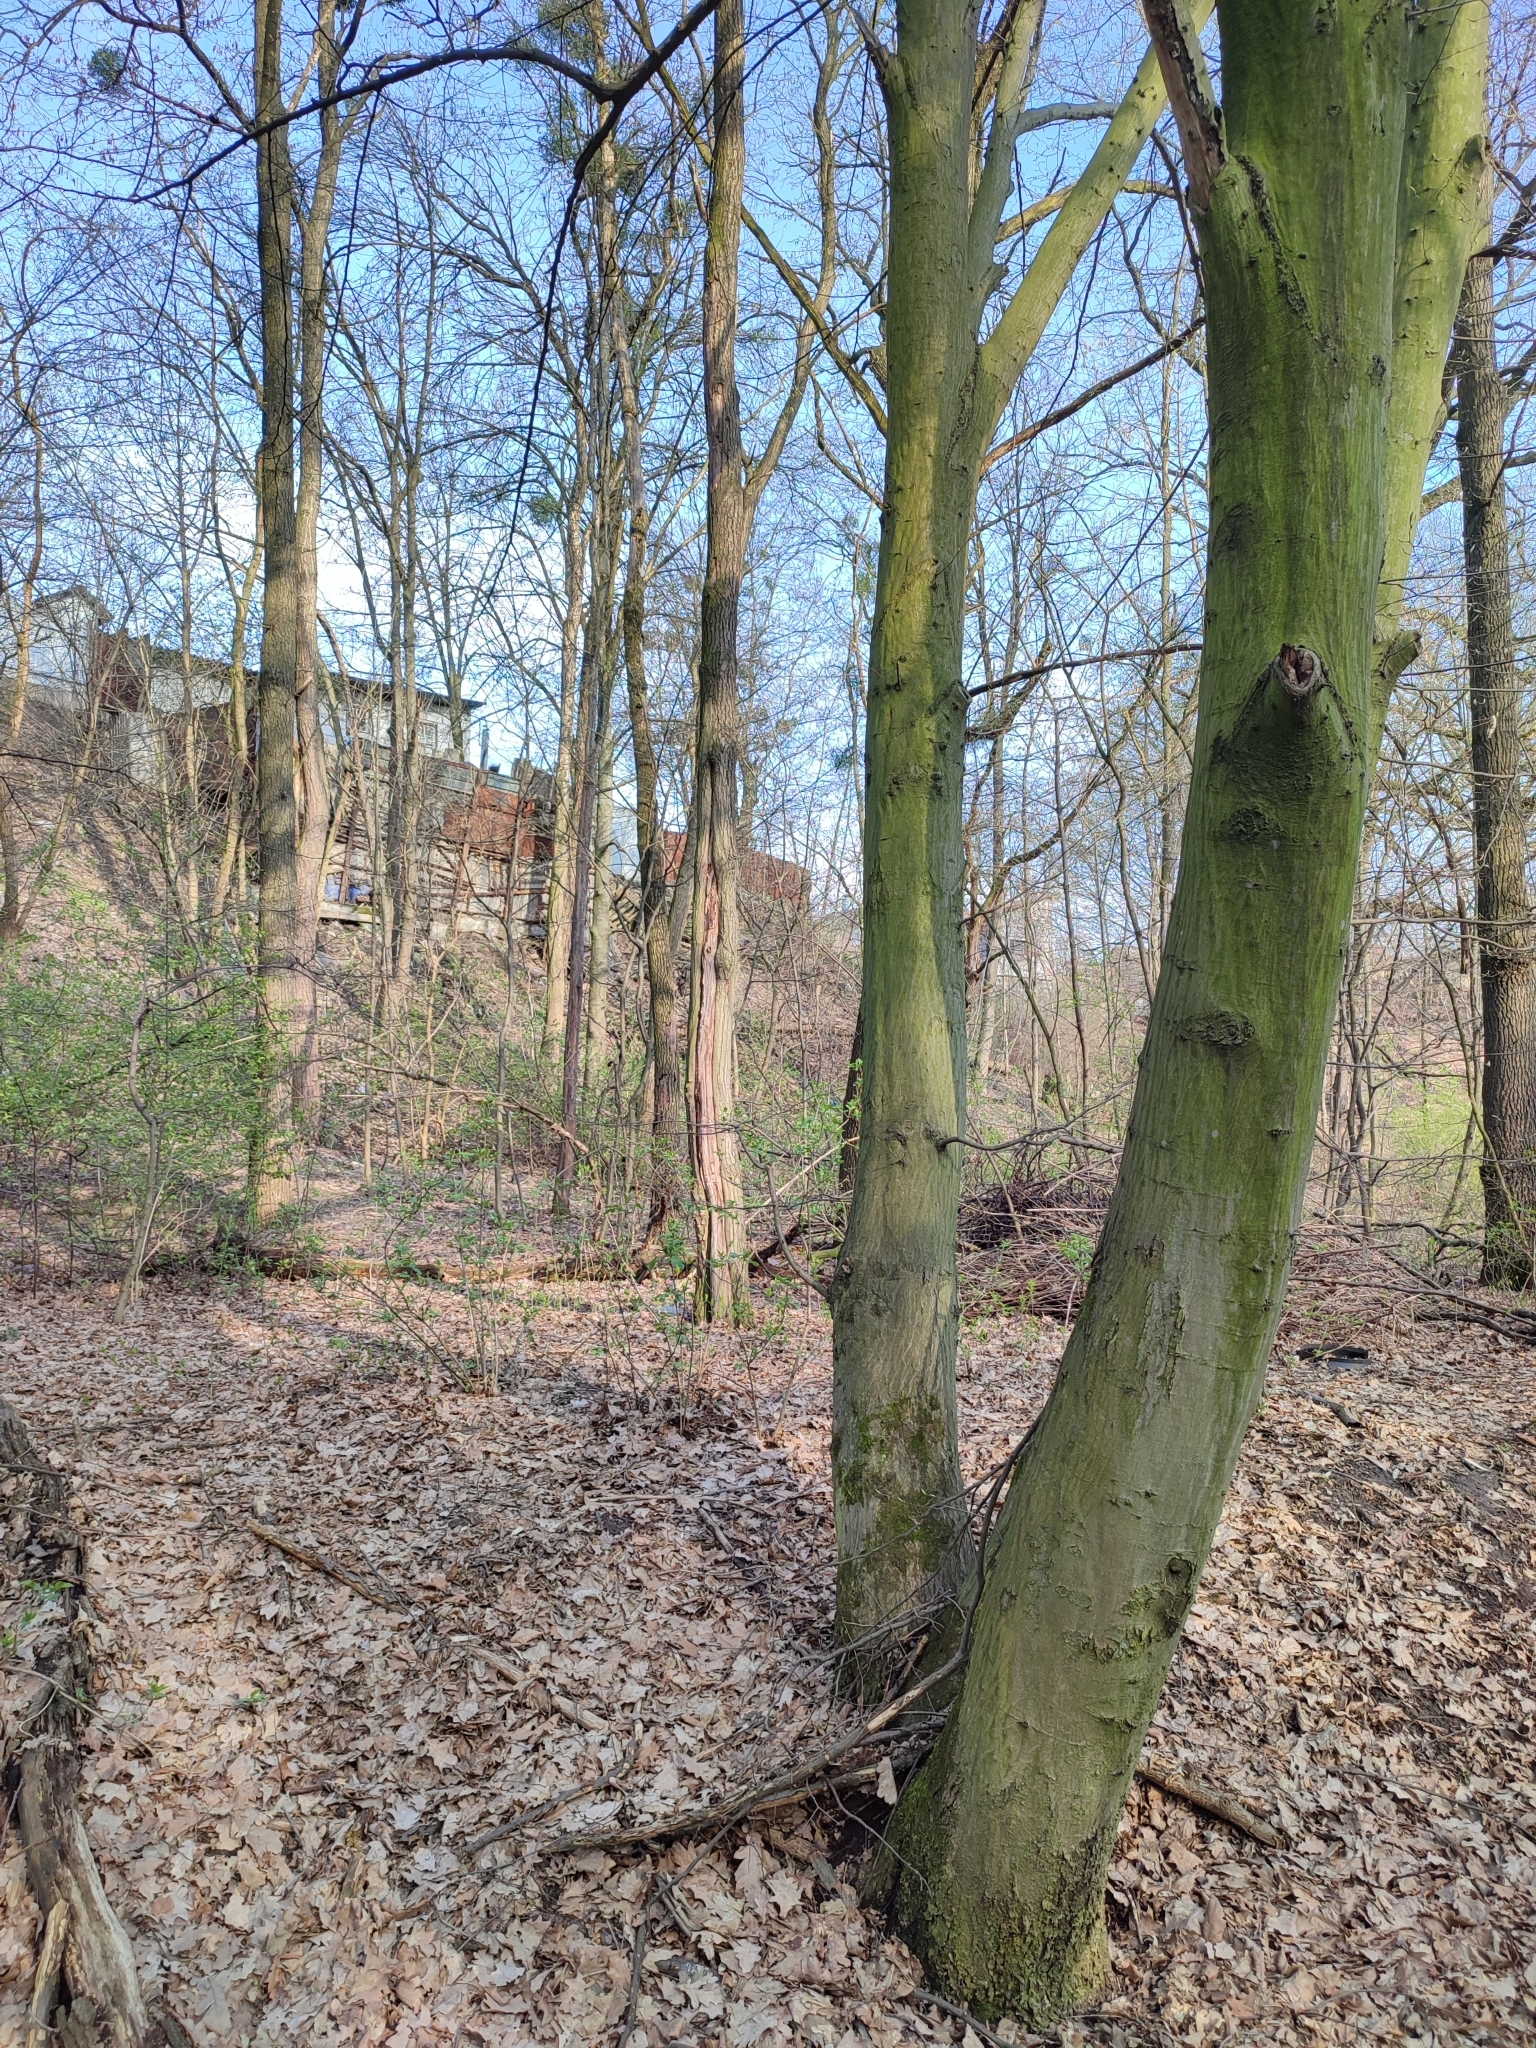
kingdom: Plantae
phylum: Tracheophyta
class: Magnoliopsida
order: Fagales
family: Betulaceae
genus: Carpinus
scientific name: Carpinus betulus
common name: Hornbeam
